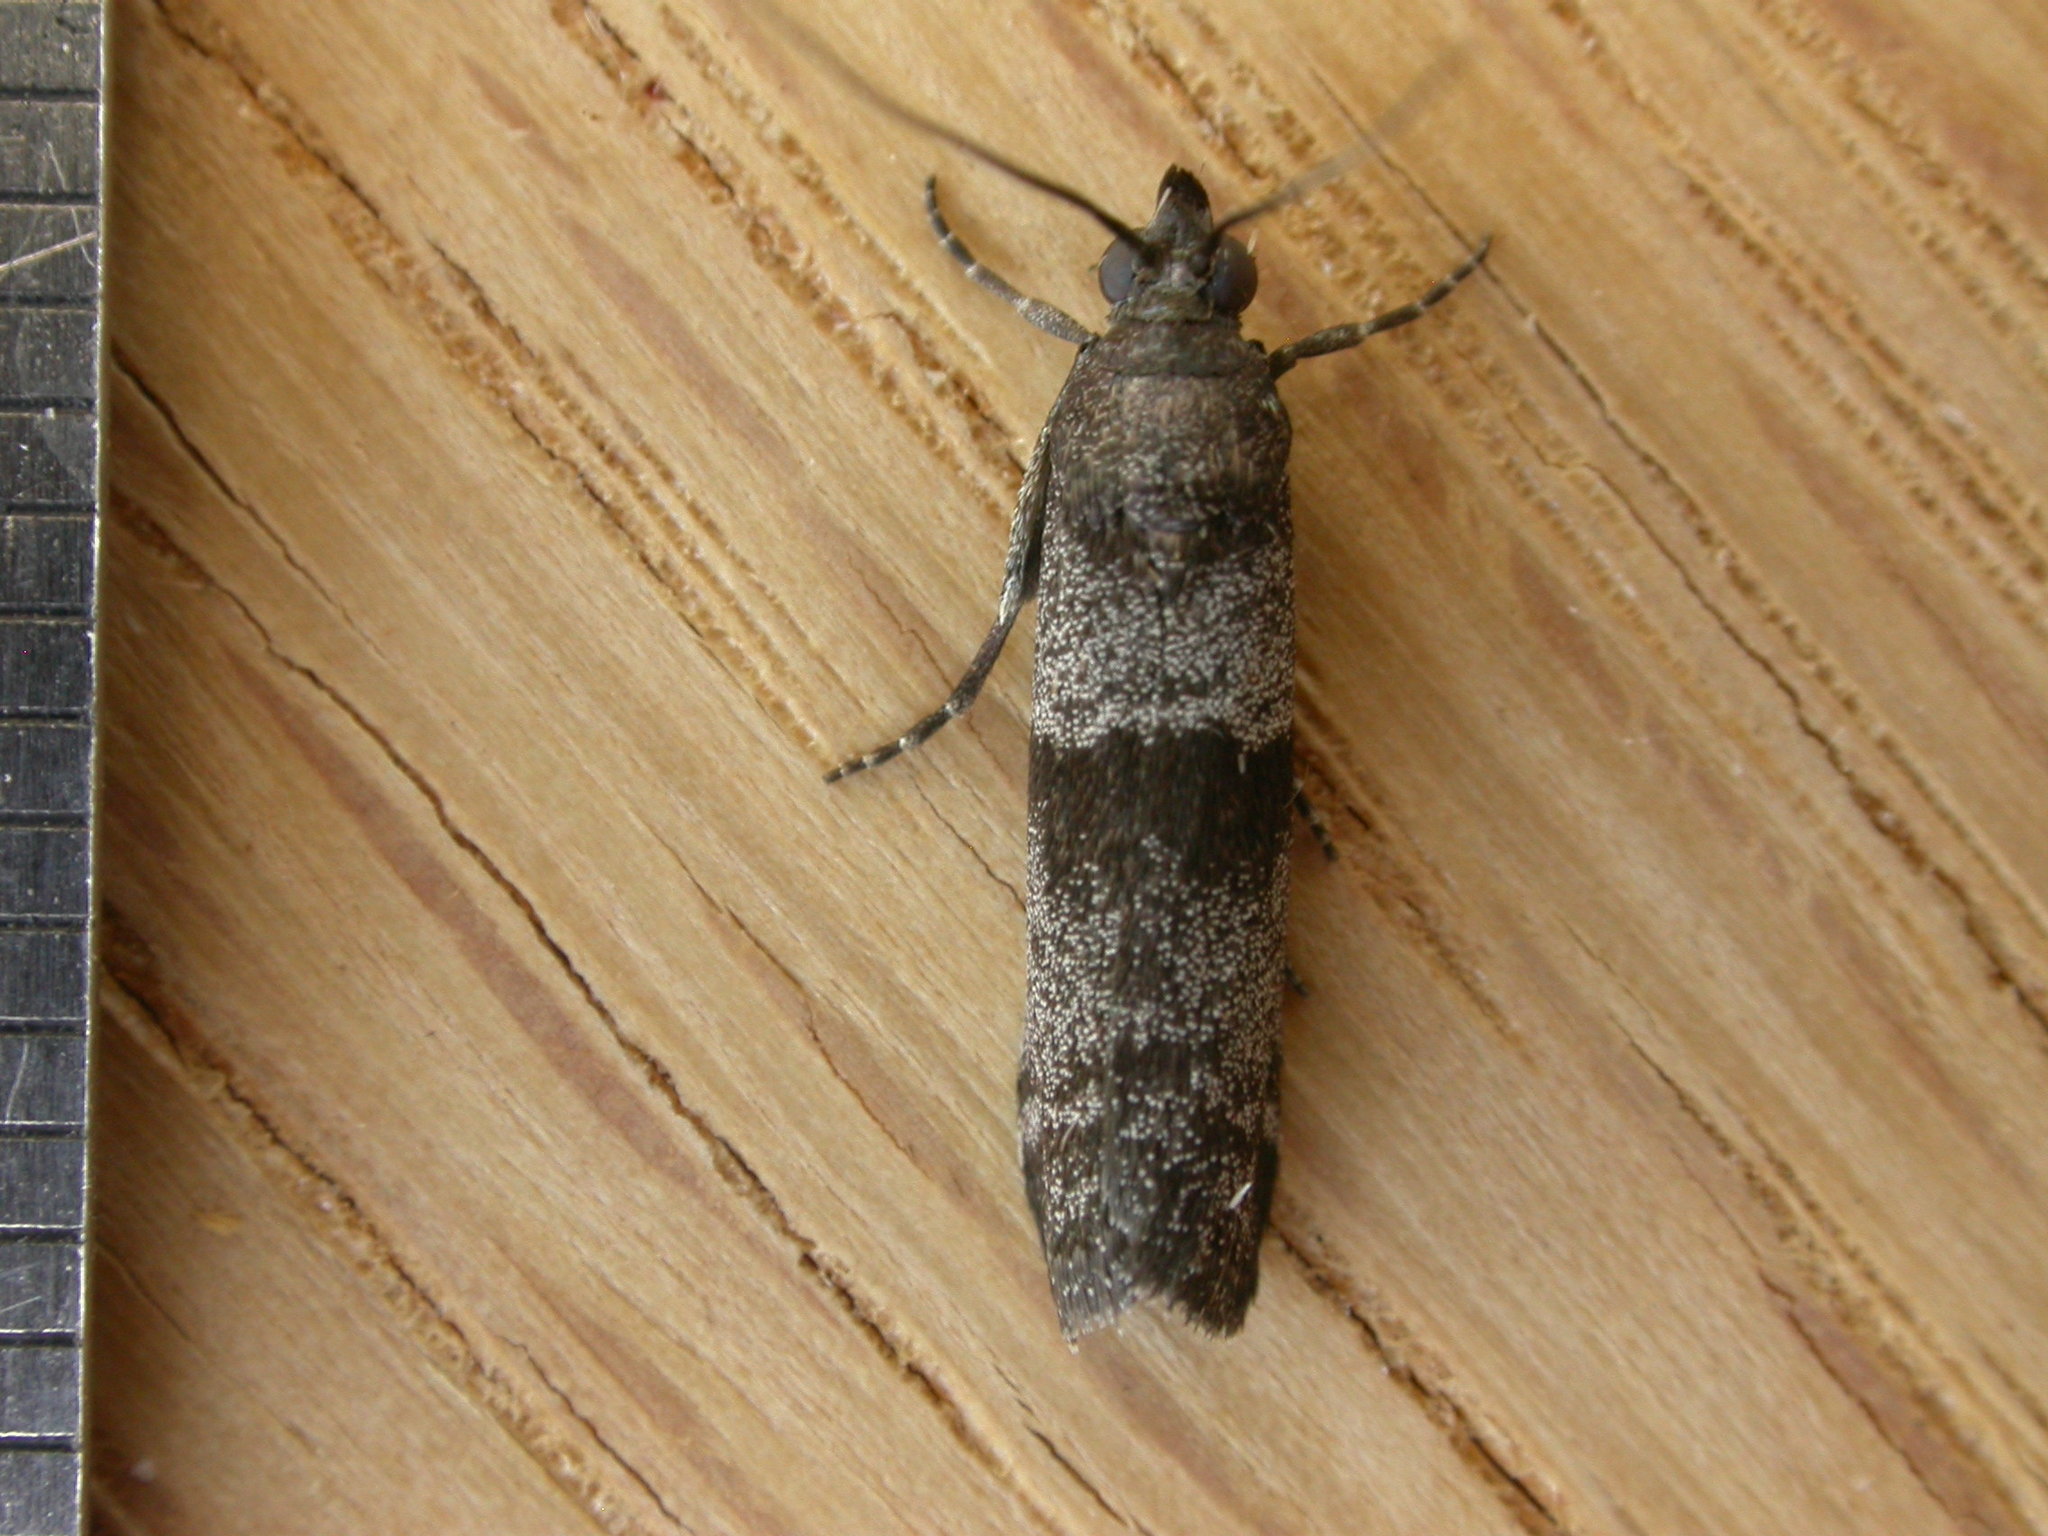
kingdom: Animalia
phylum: Arthropoda
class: Insecta
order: Lepidoptera
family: Pyralidae
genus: Lasiosticha
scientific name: Lasiosticha opimella
